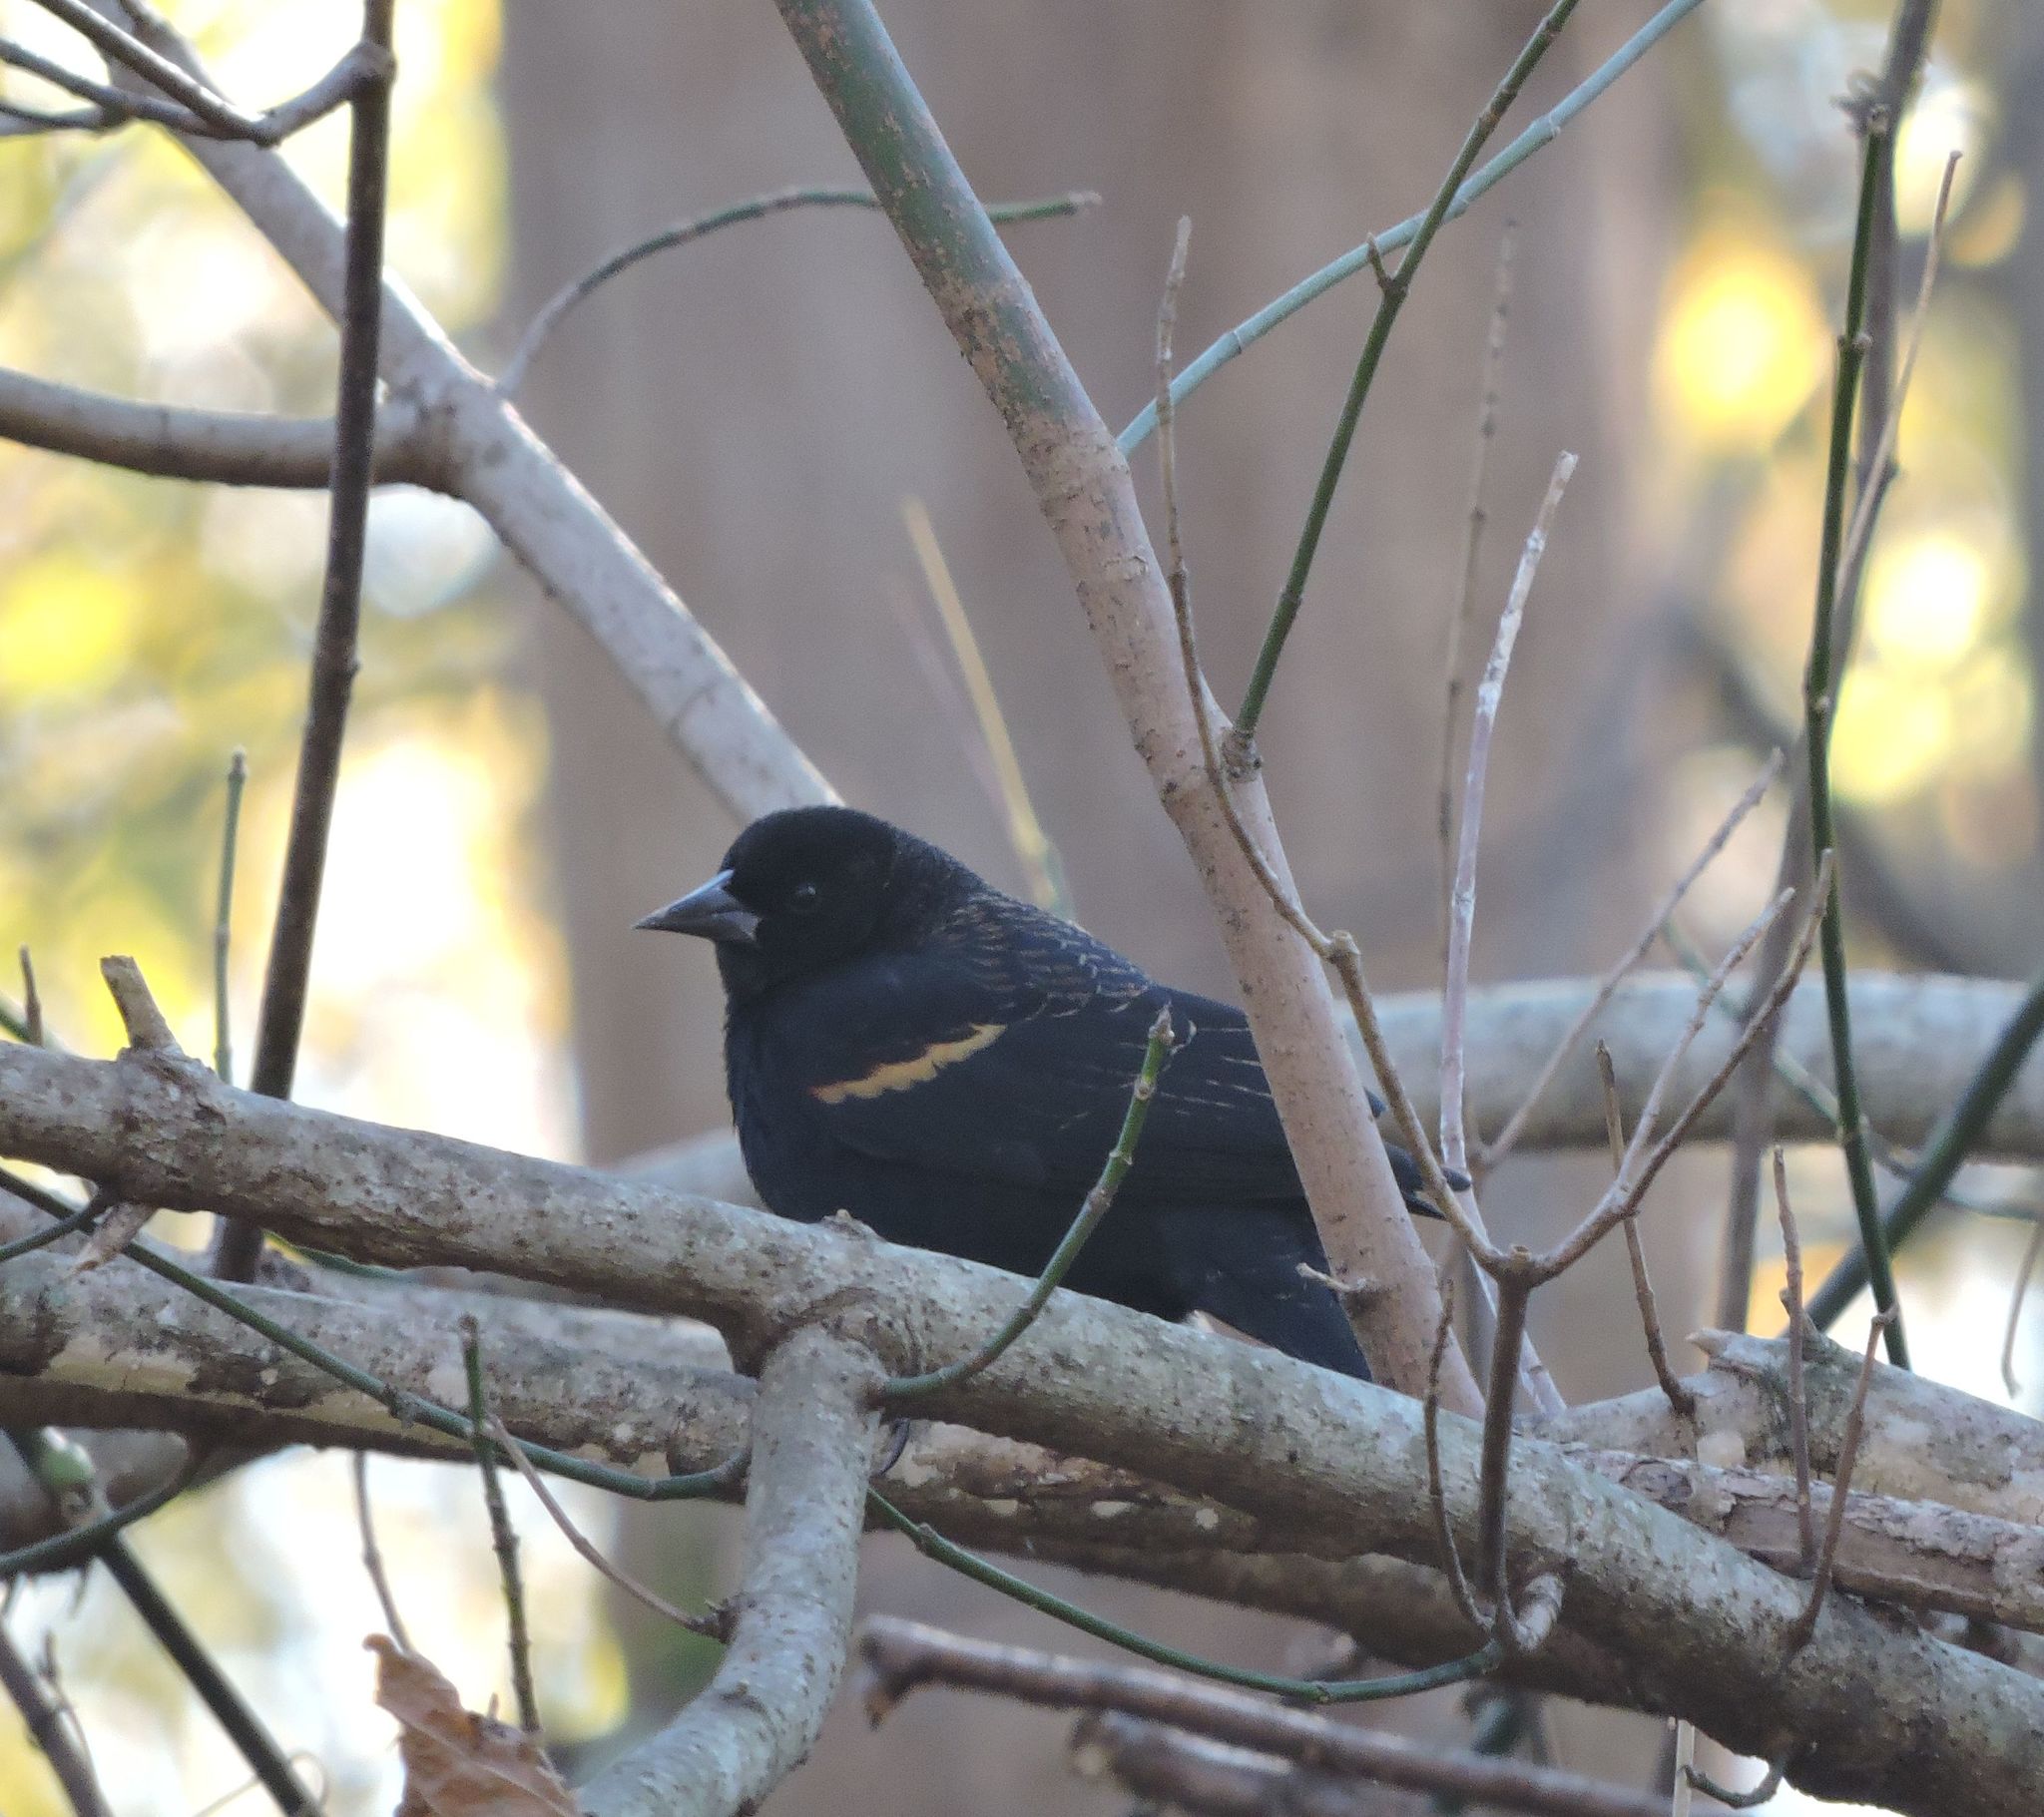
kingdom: Animalia
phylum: Chordata
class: Aves
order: Passeriformes
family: Icteridae
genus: Agelaius
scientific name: Agelaius phoeniceus
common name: Red-winged blackbird
